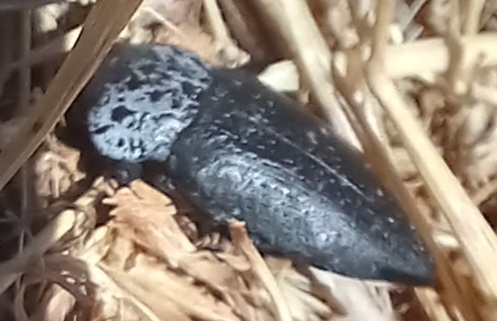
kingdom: Animalia
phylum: Arthropoda
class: Insecta
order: Coleoptera
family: Buprestidae
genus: Capnodis
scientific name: Capnodis tenebrionis
